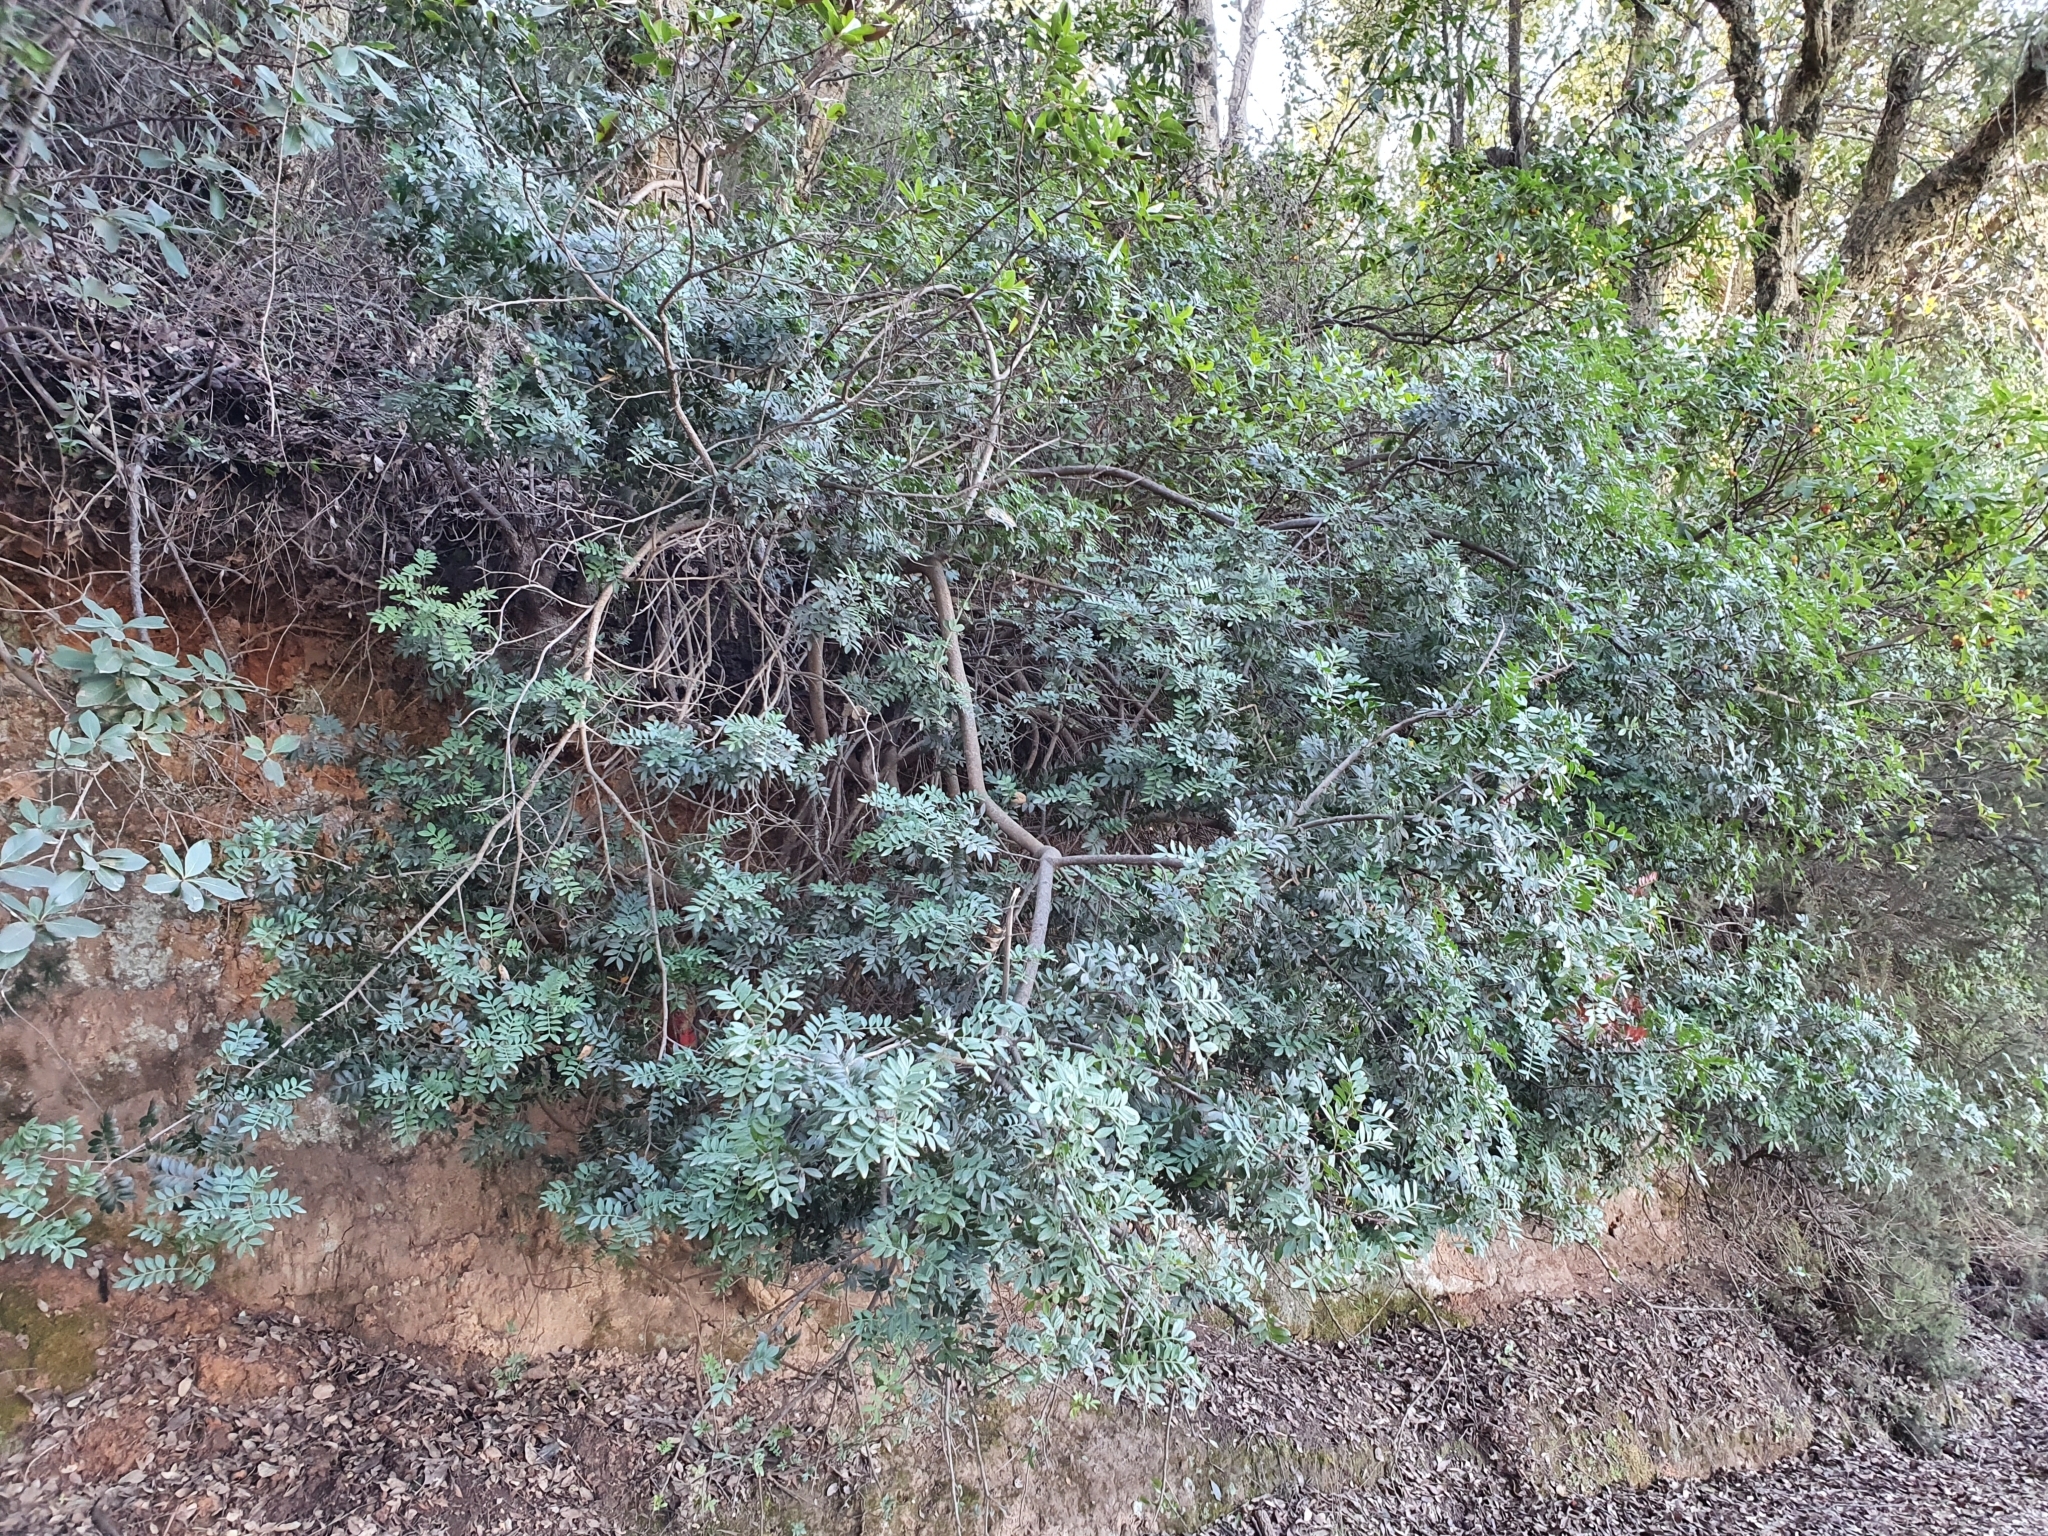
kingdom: Plantae
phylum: Tracheophyta
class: Magnoliopsida
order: Sapindales
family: Anacardiaceae
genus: Pistacia
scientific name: Pistacia lentiscus
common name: Lentisk
